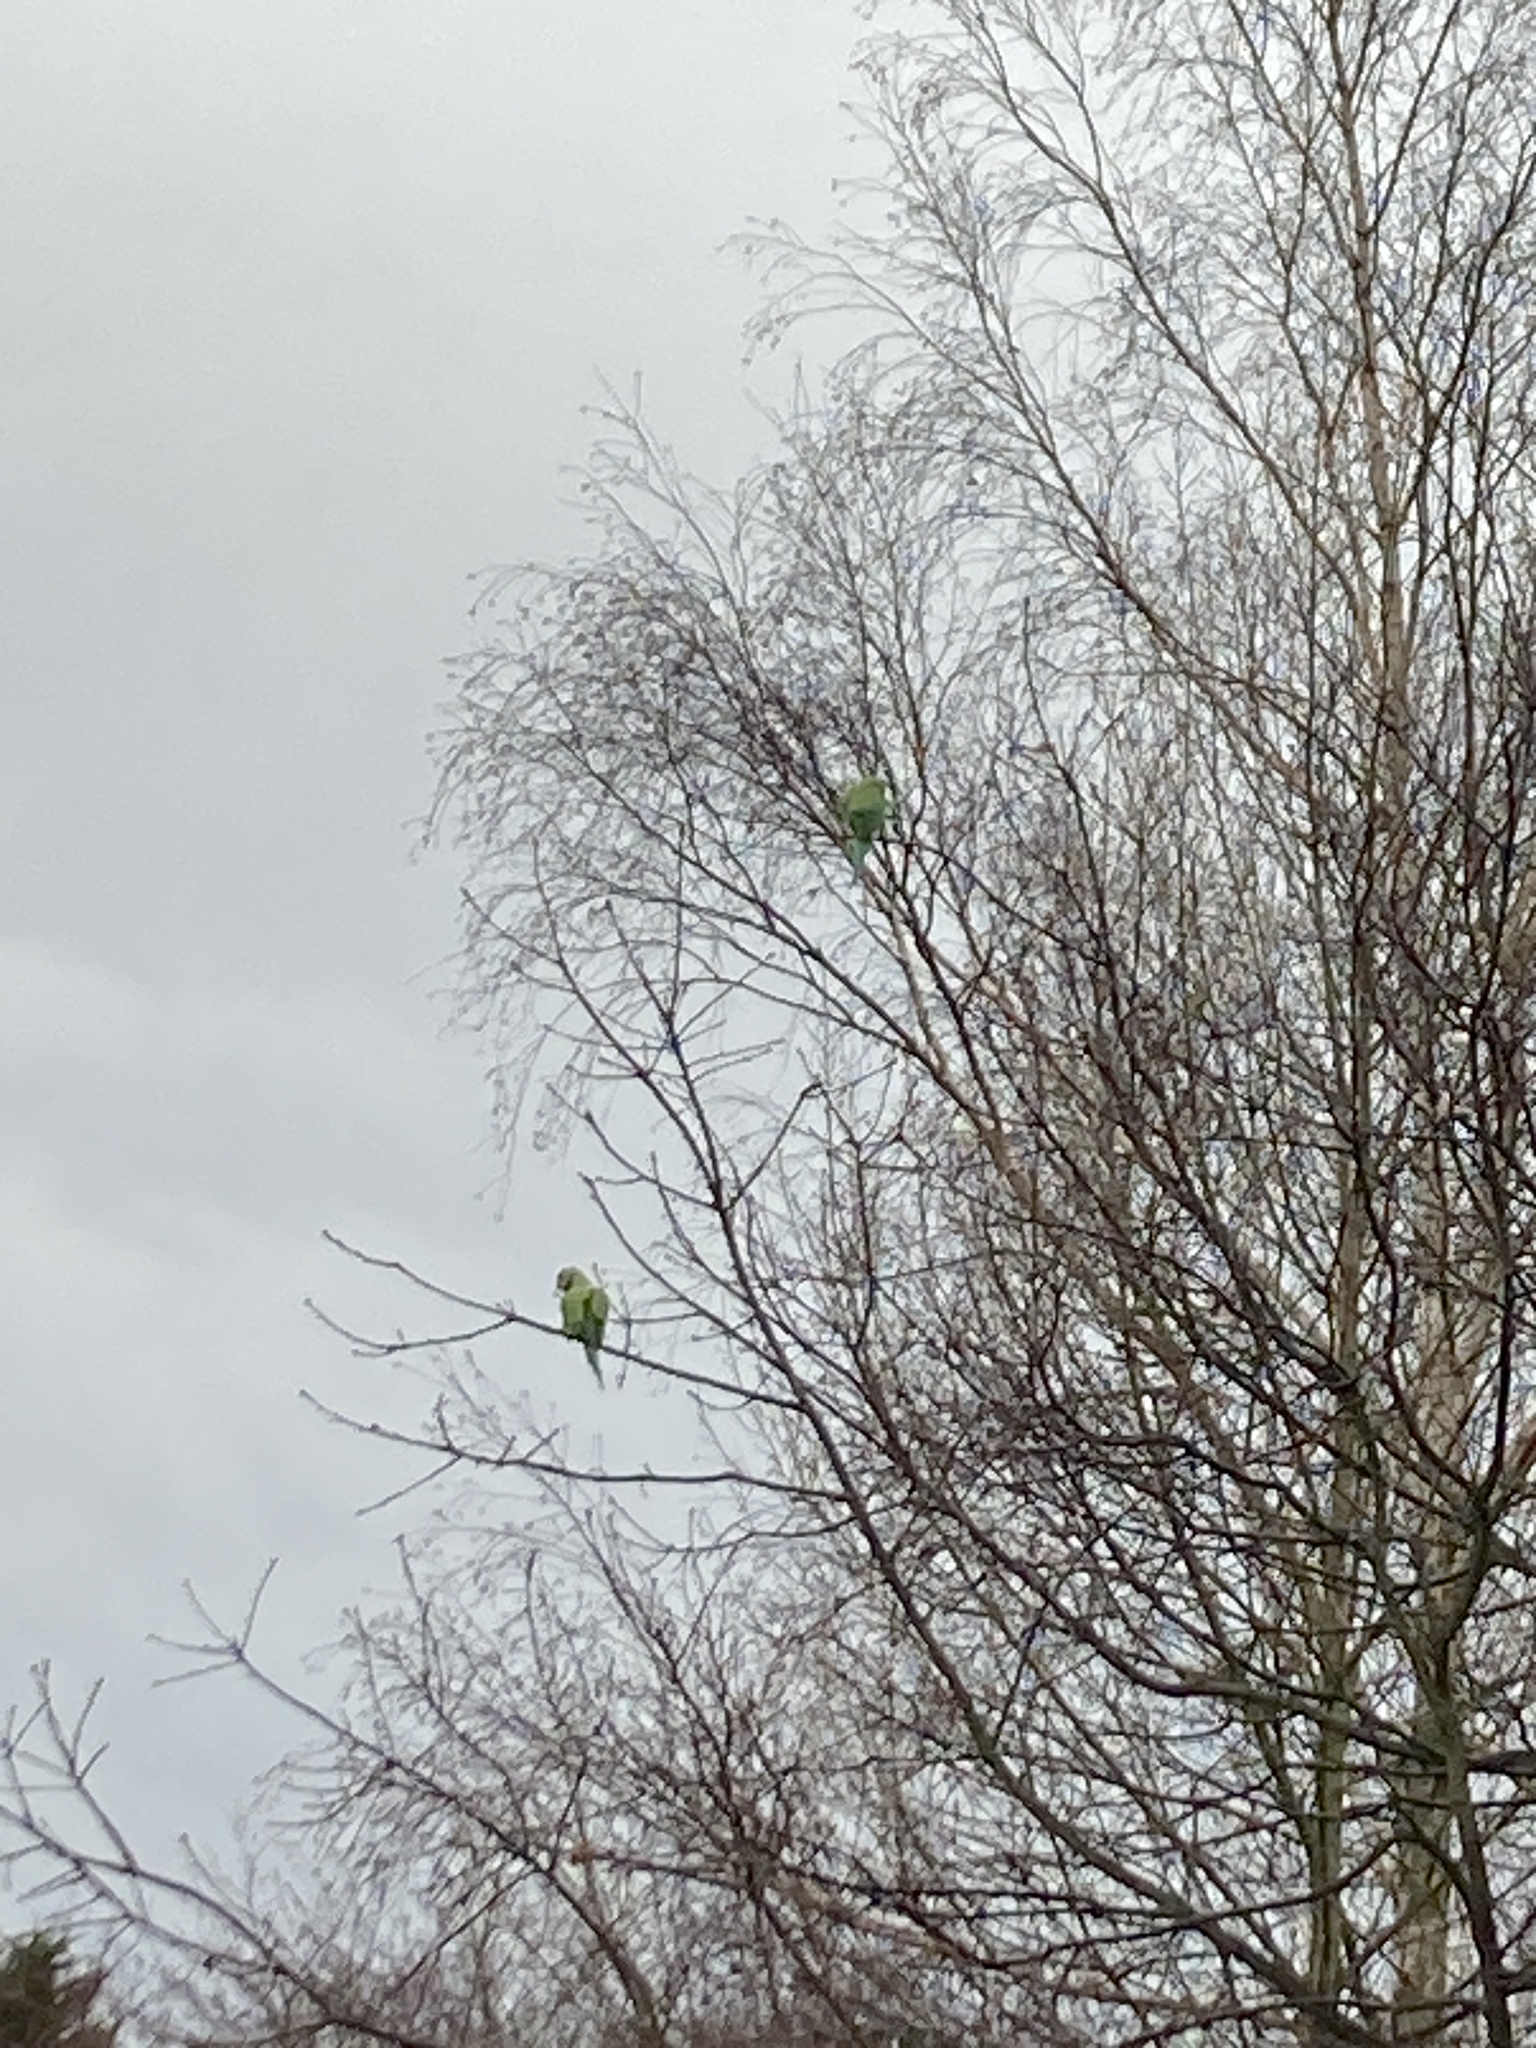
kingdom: Animalia
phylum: Chordata
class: Aves
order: Psittaciformes
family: Psittacidae
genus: Psittacula
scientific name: Psittacula krameri
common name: Rose-ringed parakeet
